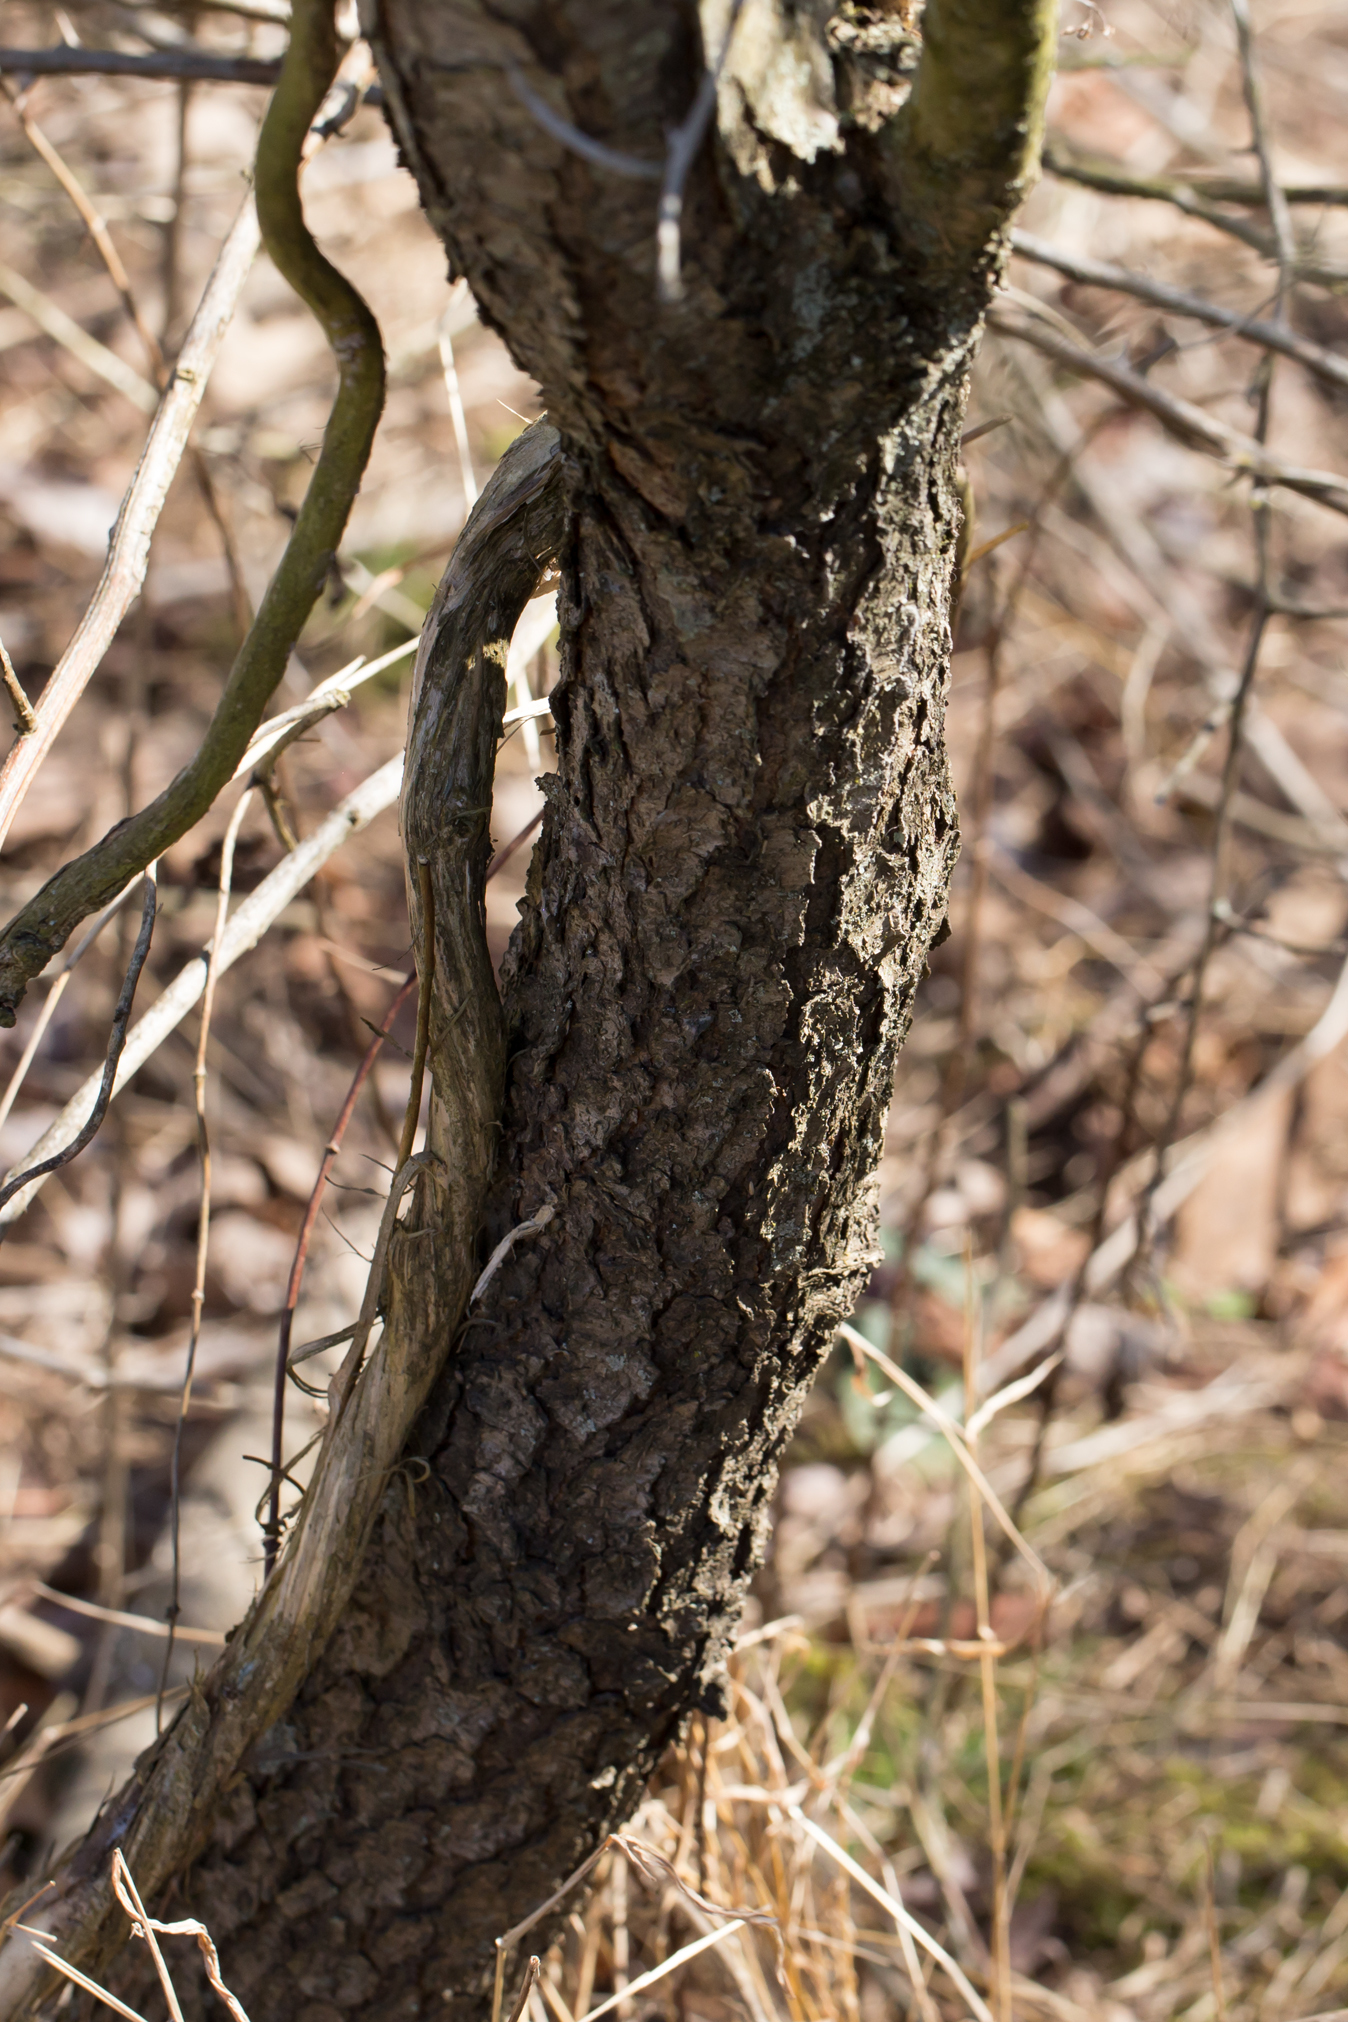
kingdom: Plantae
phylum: Tracheophyta
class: Magnoliopsida
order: Rosales
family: Rosaceae
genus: Prunus
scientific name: Prunus serotina
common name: Black cherry
